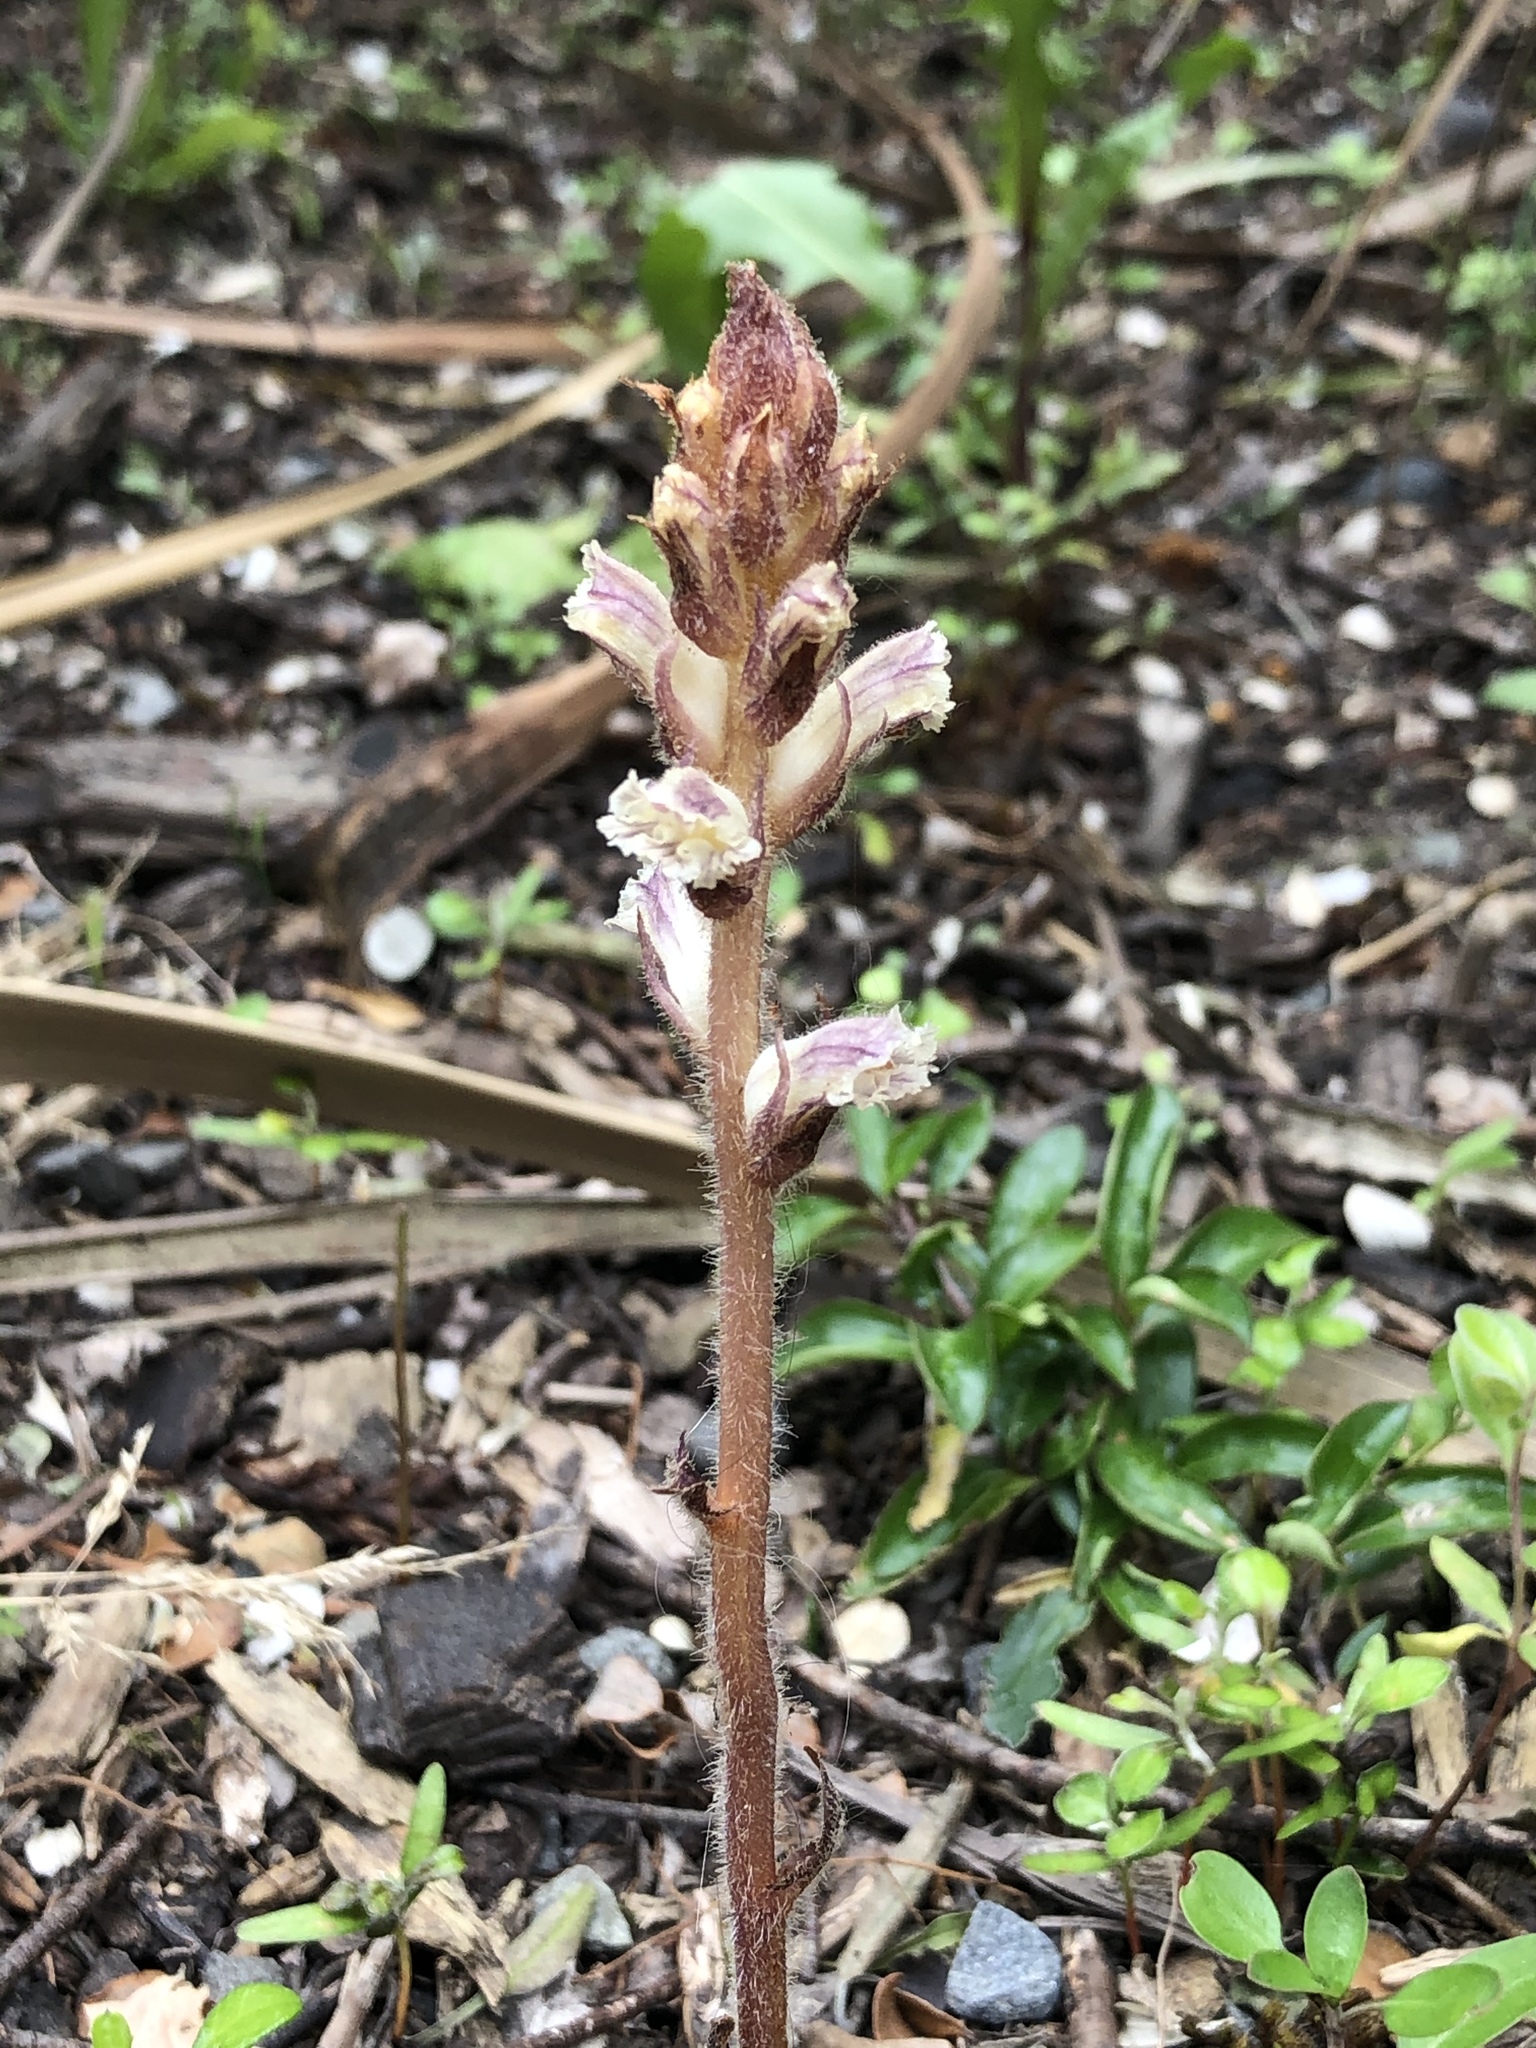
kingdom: Plantae
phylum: Tracheophyta
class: Magnoliopsida
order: Lamiales
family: Orobanchaceae
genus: Orobanche
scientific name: Orobanche minor
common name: Common broomrape
